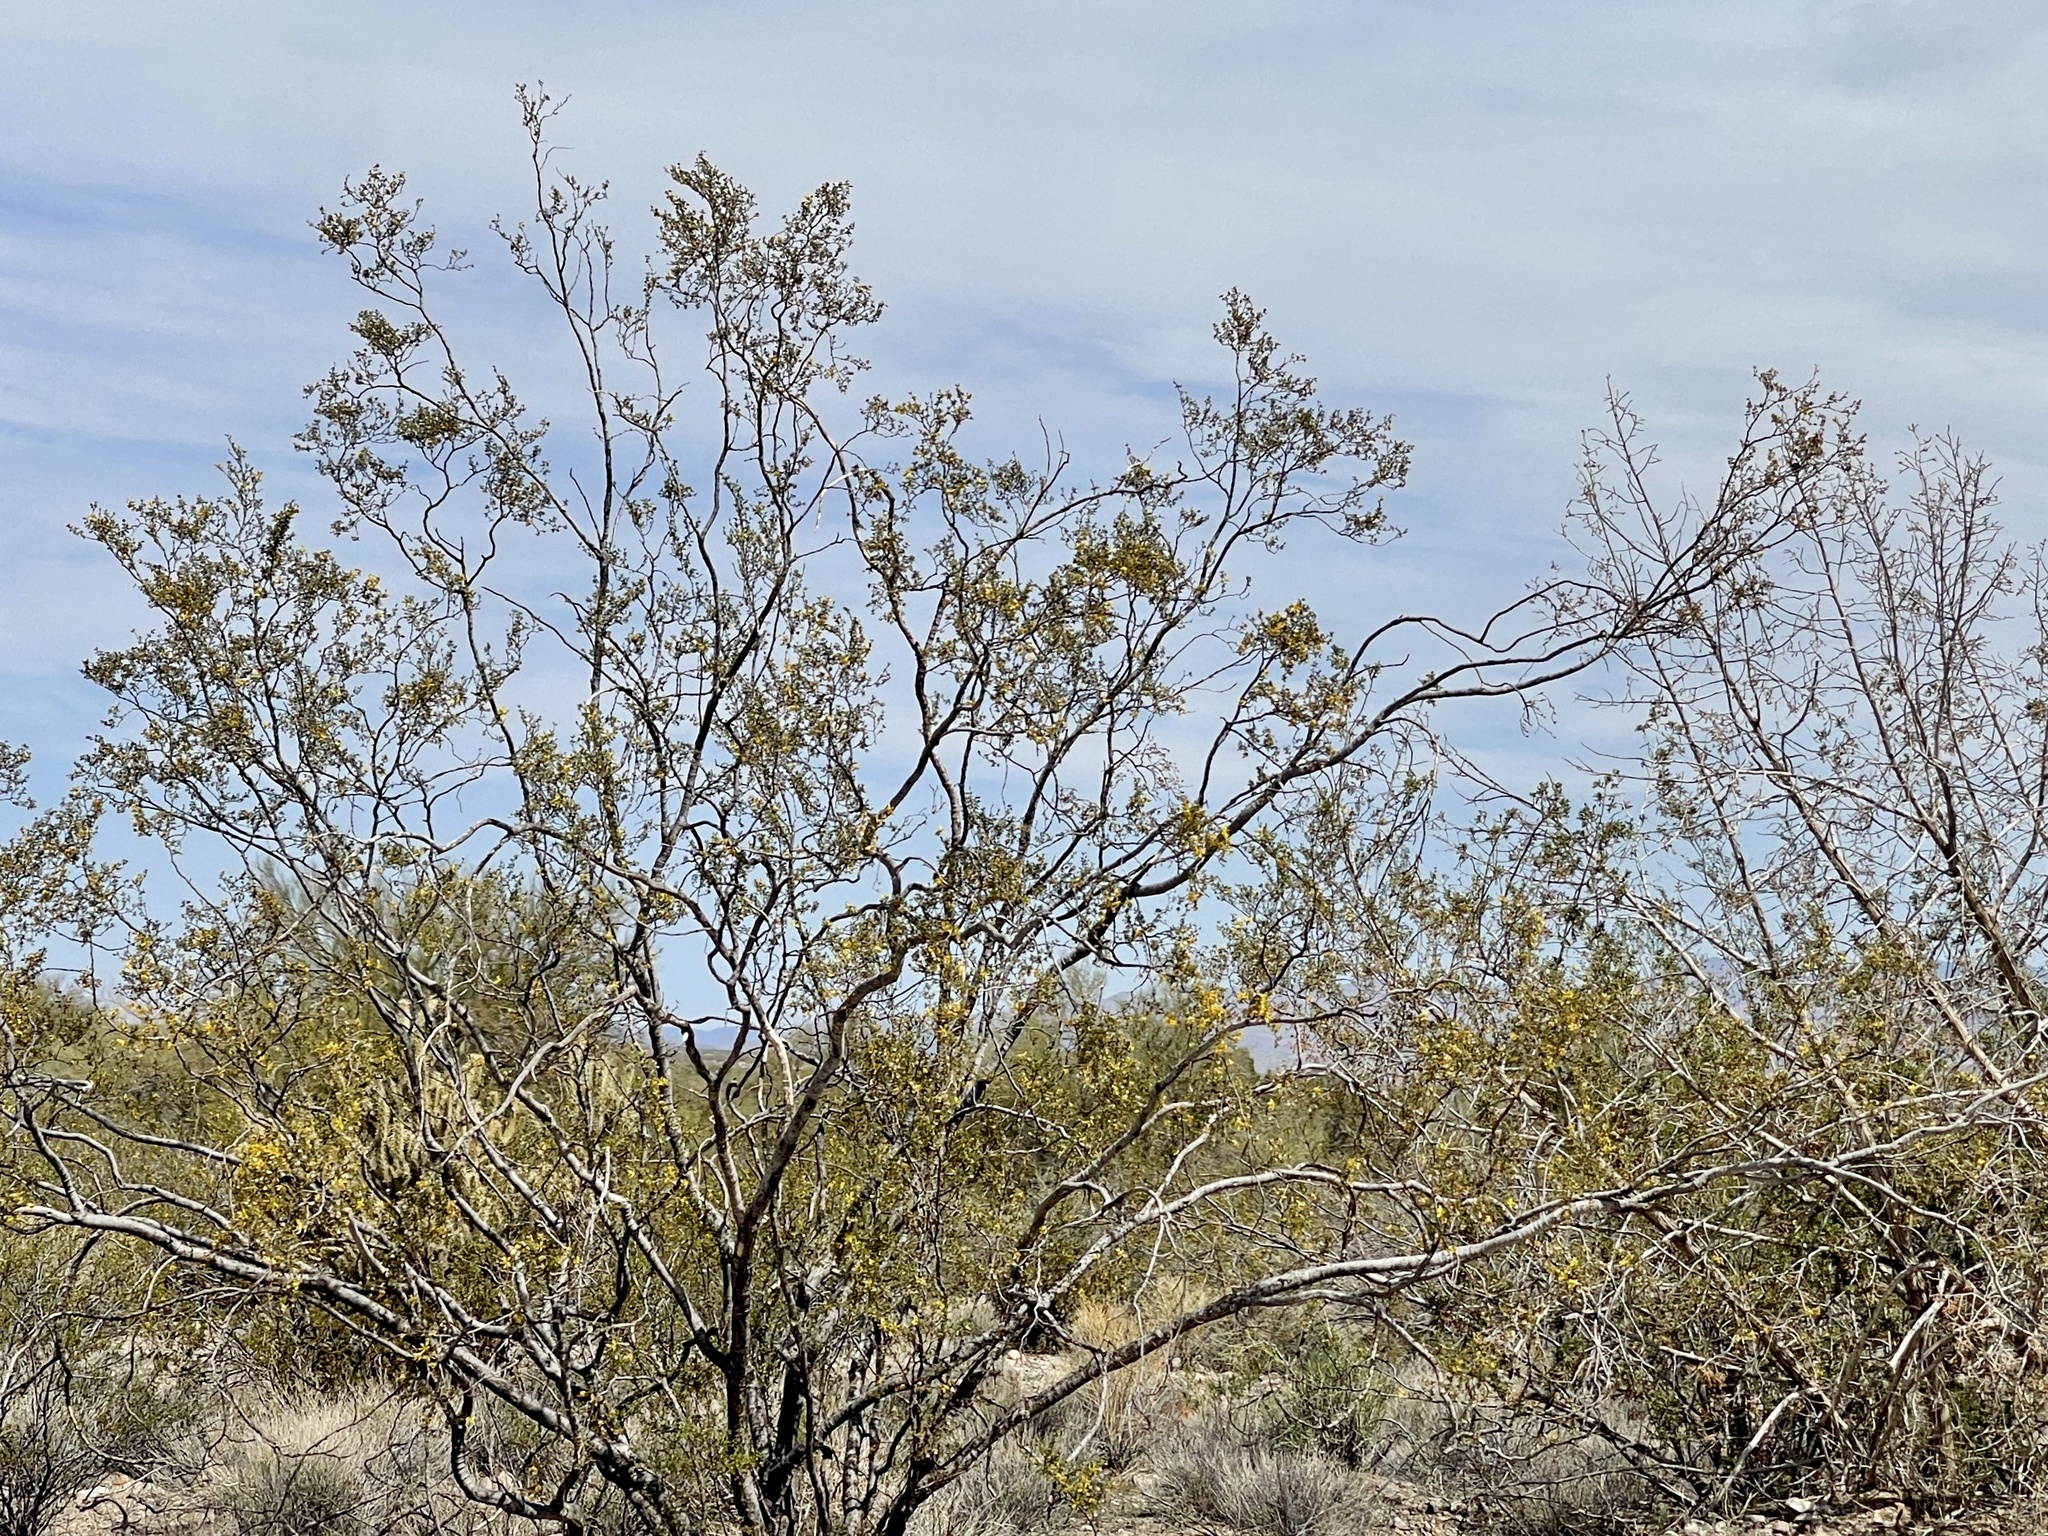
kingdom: Plantae
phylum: Tracheophyta
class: Magnoliopsida
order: Zygophyllales
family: Zygophyllaceae
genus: Larrea
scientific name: Larrea tridentata
